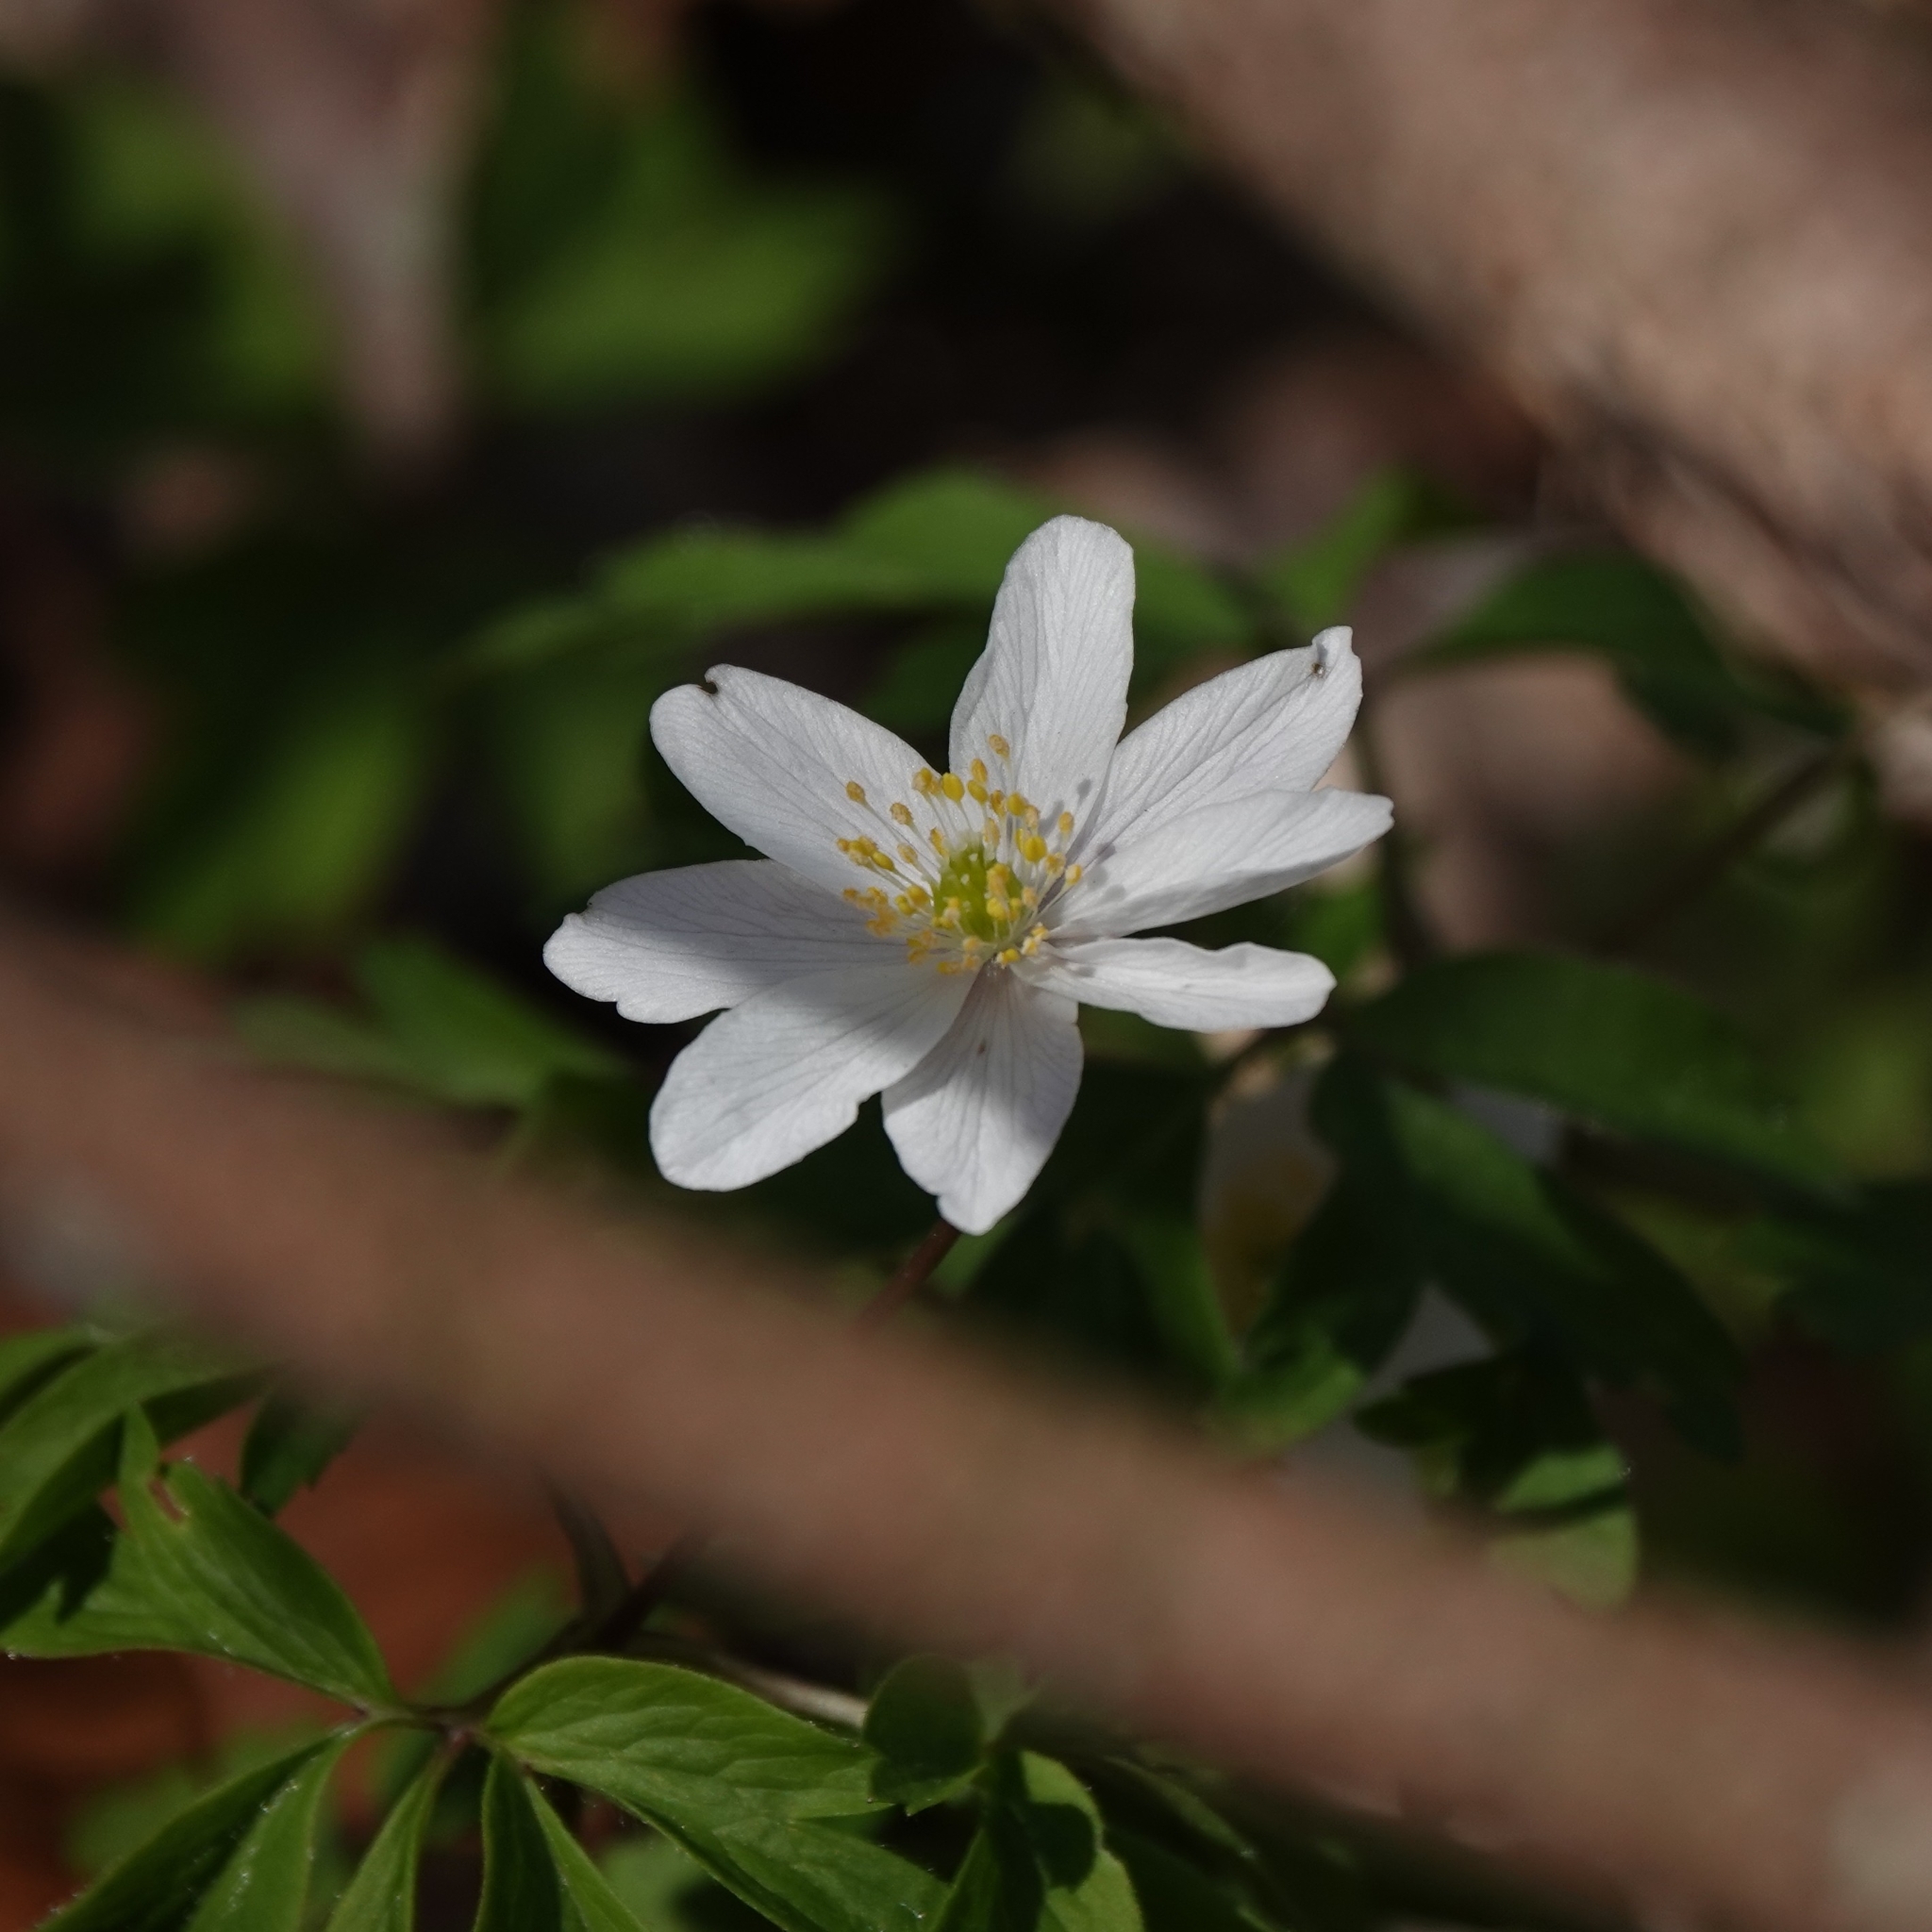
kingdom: Plantae
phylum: Tracheophyta
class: Magnoliopsida
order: Ranunculales
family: Ranunculaceae
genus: Anemone
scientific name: Anemone nemorosa
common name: Wood anemone
